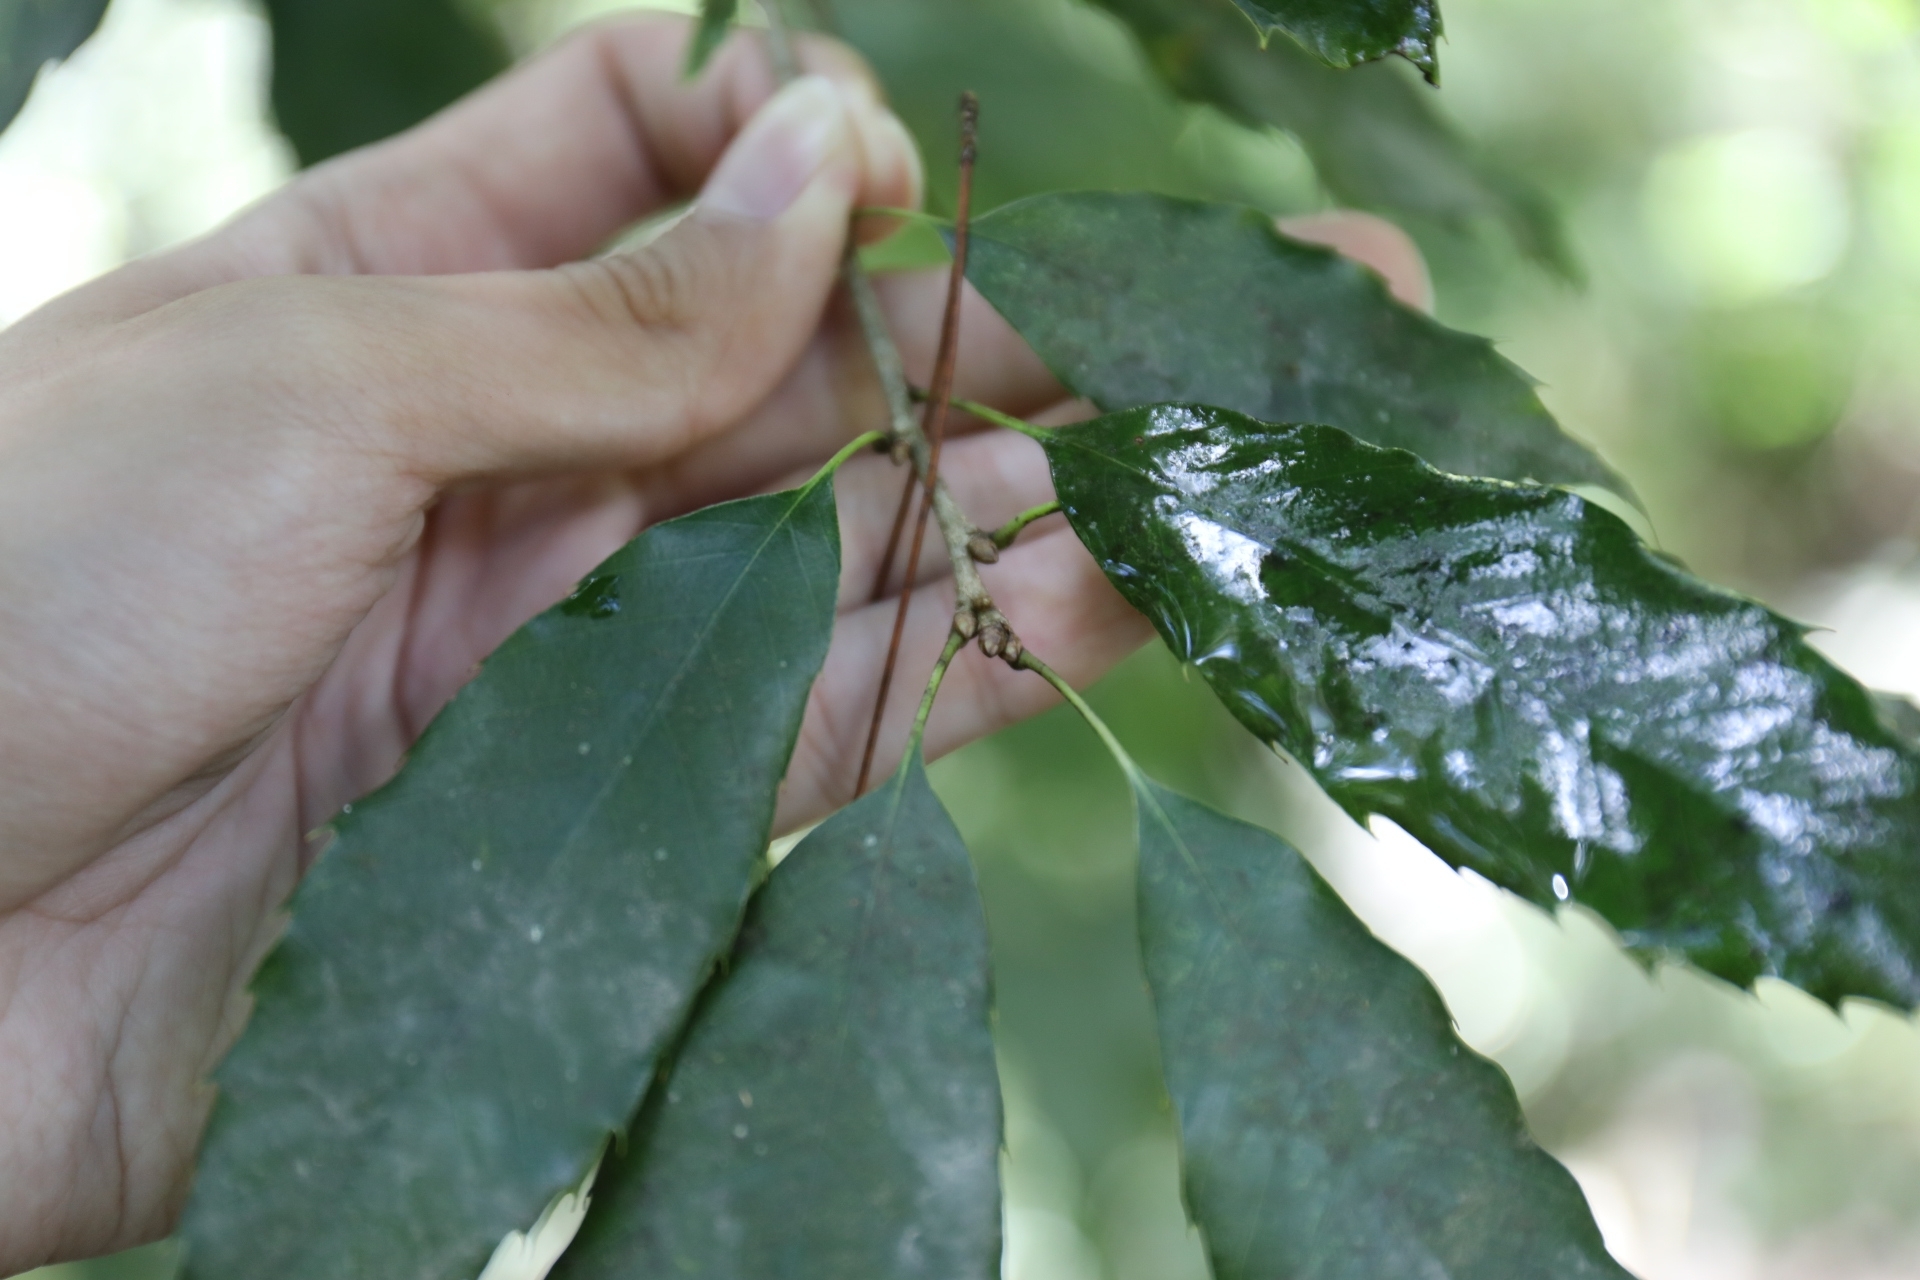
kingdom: Plantae
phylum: Tracheophyta
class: Magnoliopsida
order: Fagales
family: Fagaceae
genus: Quercus
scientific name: Quercus stenophylloides
